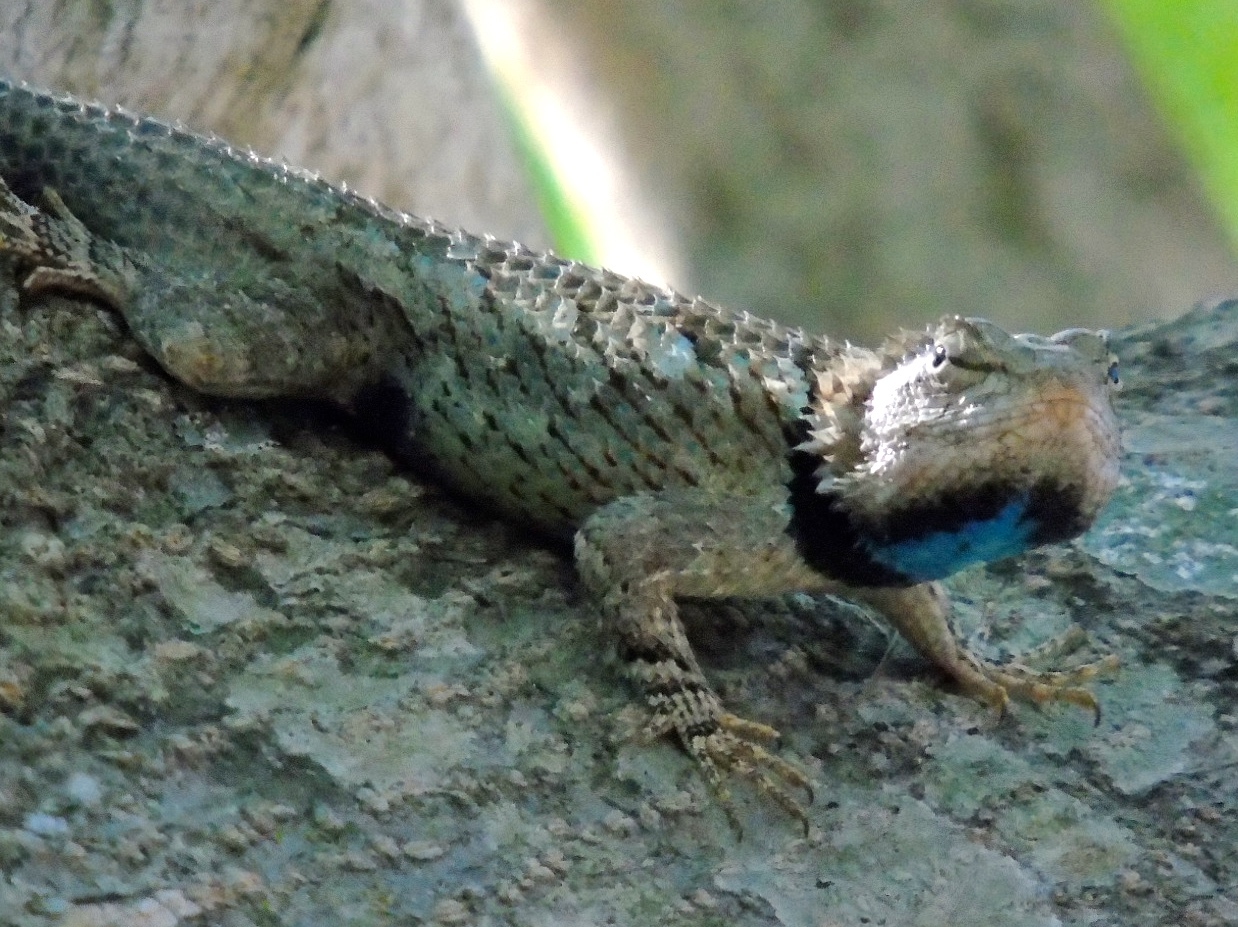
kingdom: Animalia
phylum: Chordata
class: Squamata
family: Phrynosomatidae
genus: Sceloporus
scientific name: Sceloporus clarkii
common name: Clark's spiny lizard
